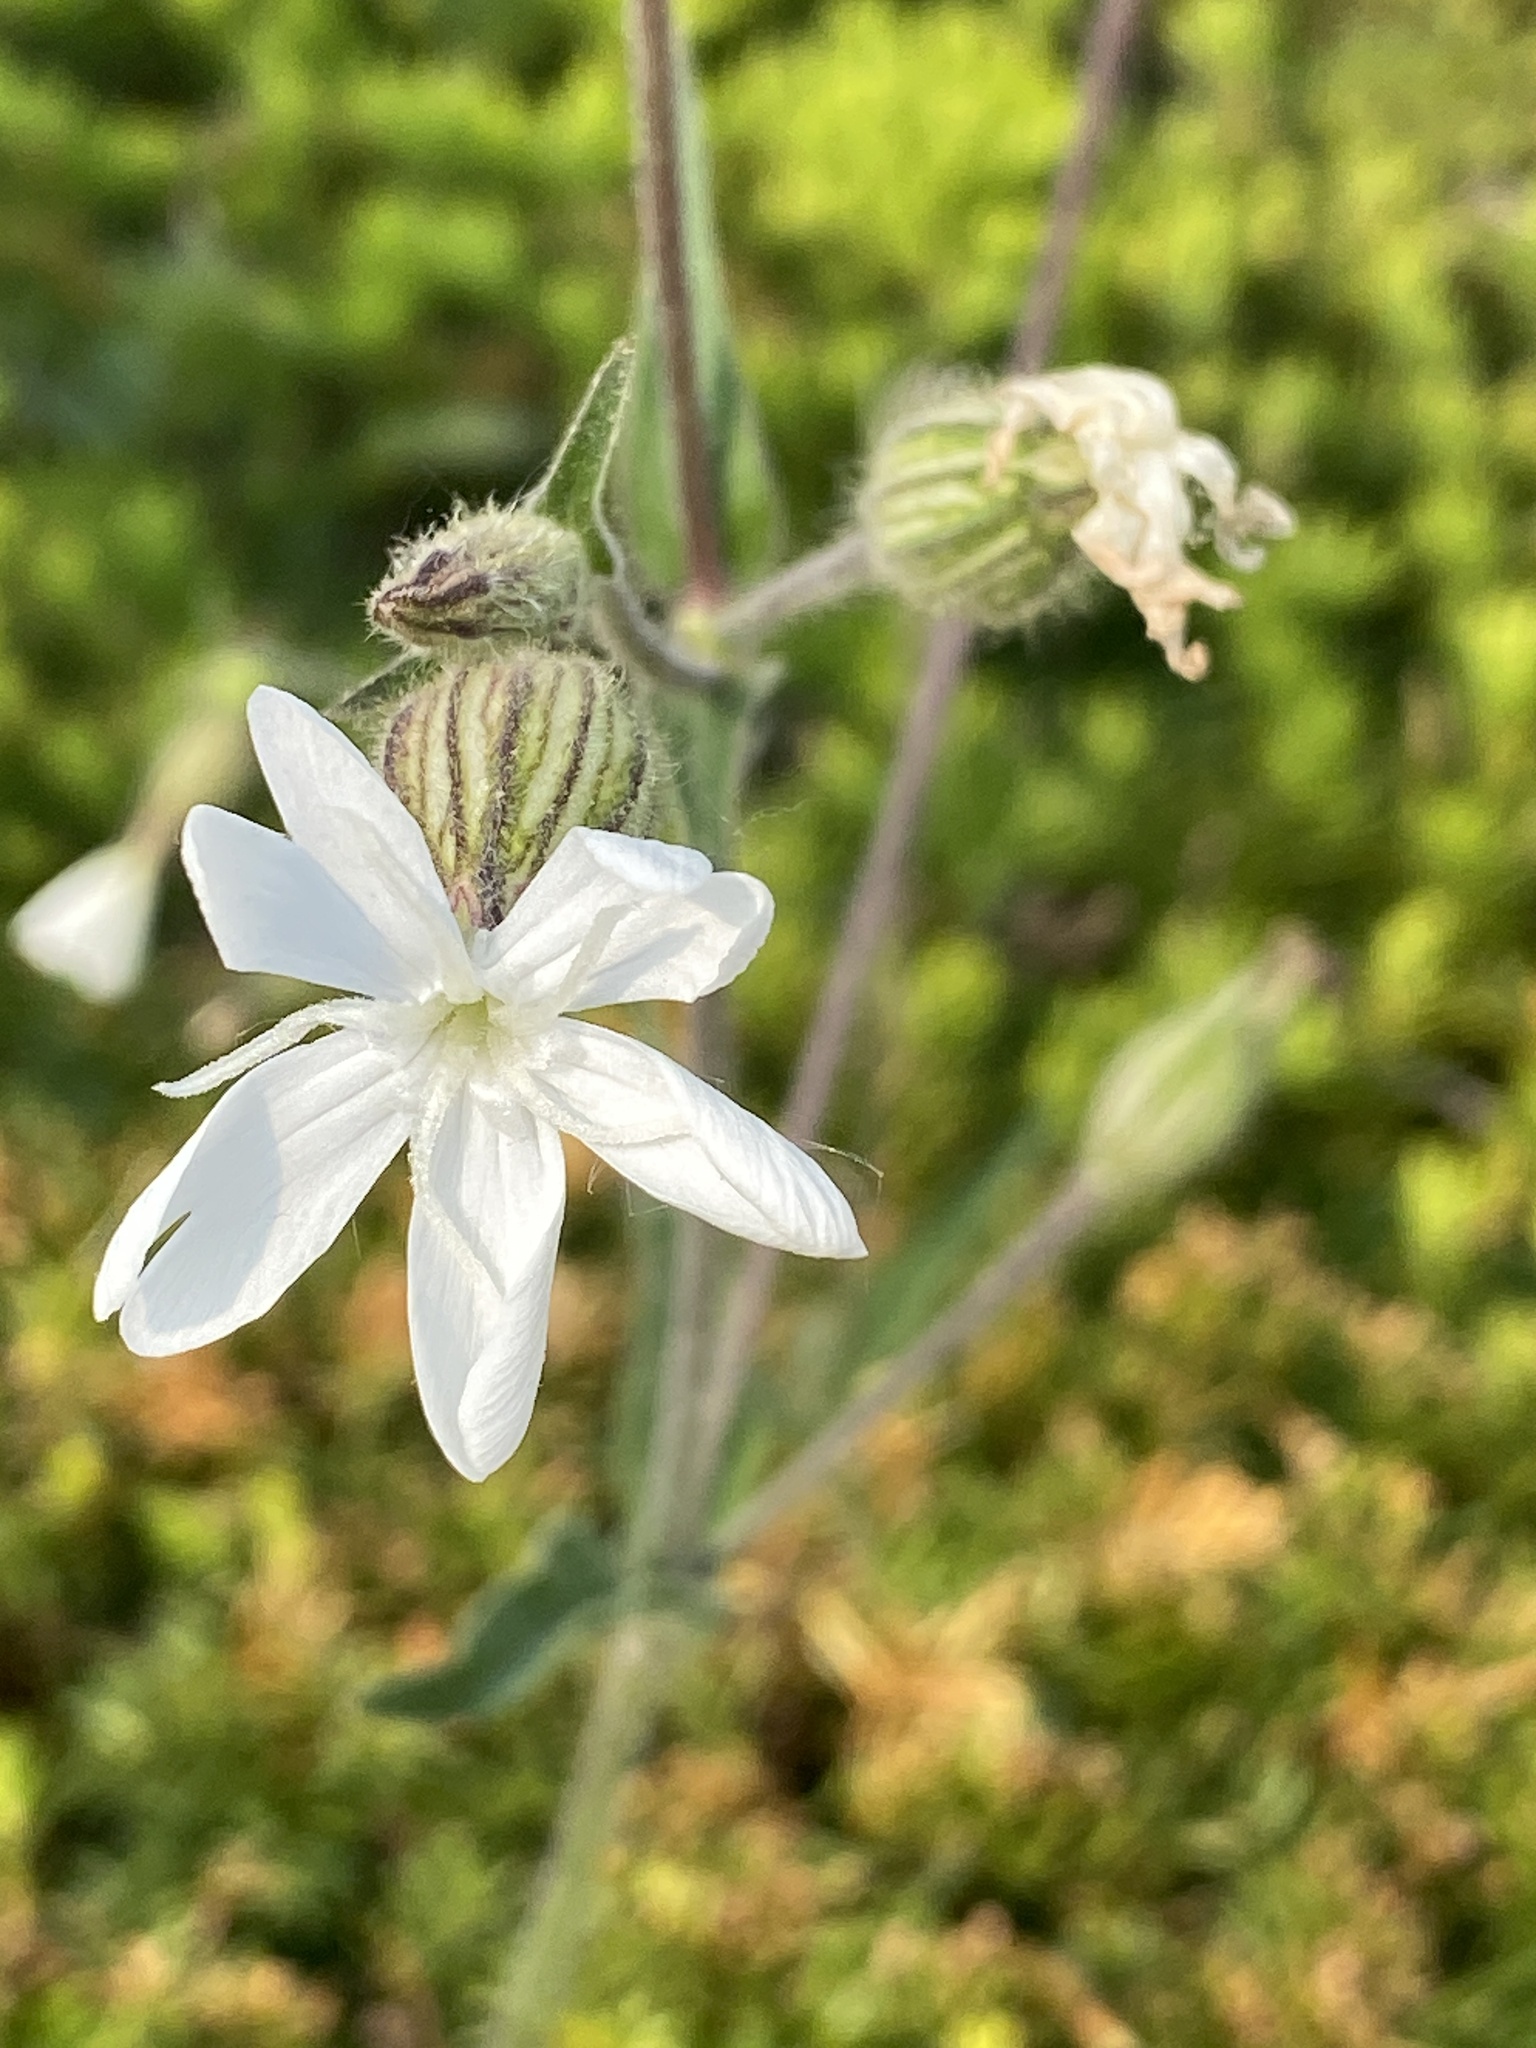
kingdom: Plantae
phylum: Tracheophyta
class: Magnoliopsida
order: Caryophyllales
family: Caryophyllaceae
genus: Silene
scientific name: Silene latifolia
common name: White campion
